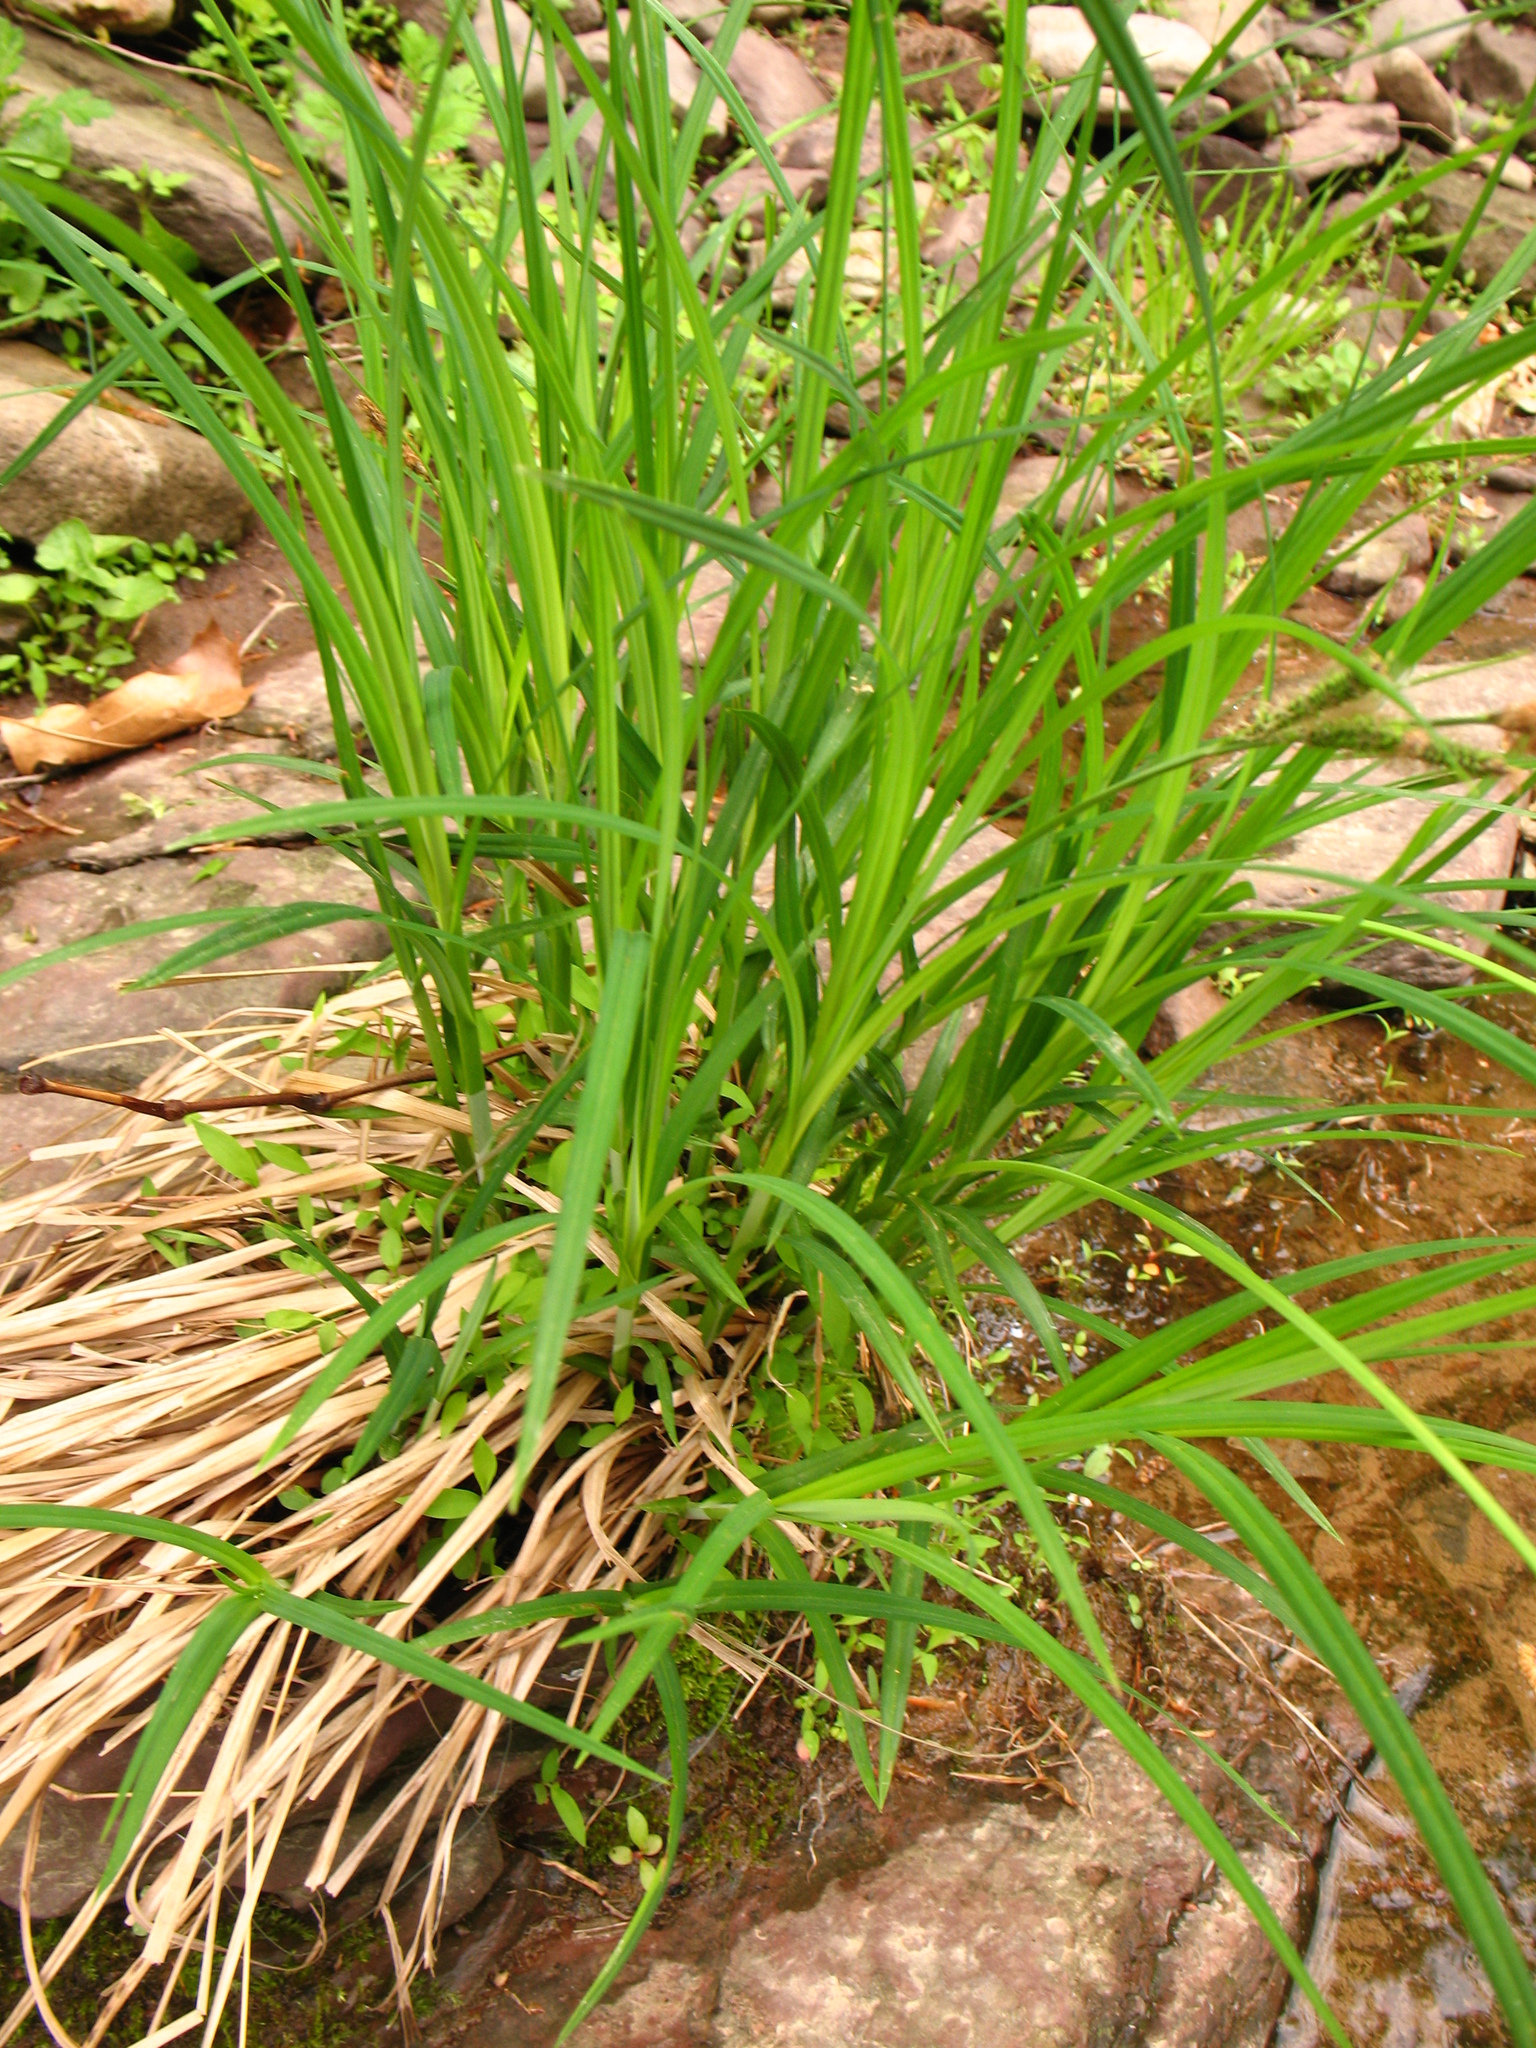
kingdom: Plantae
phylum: Tracheophyta
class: Liliopsida
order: Poales
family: Cyperaceae
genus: Carex
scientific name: Carex torta
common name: Twisted sedge
